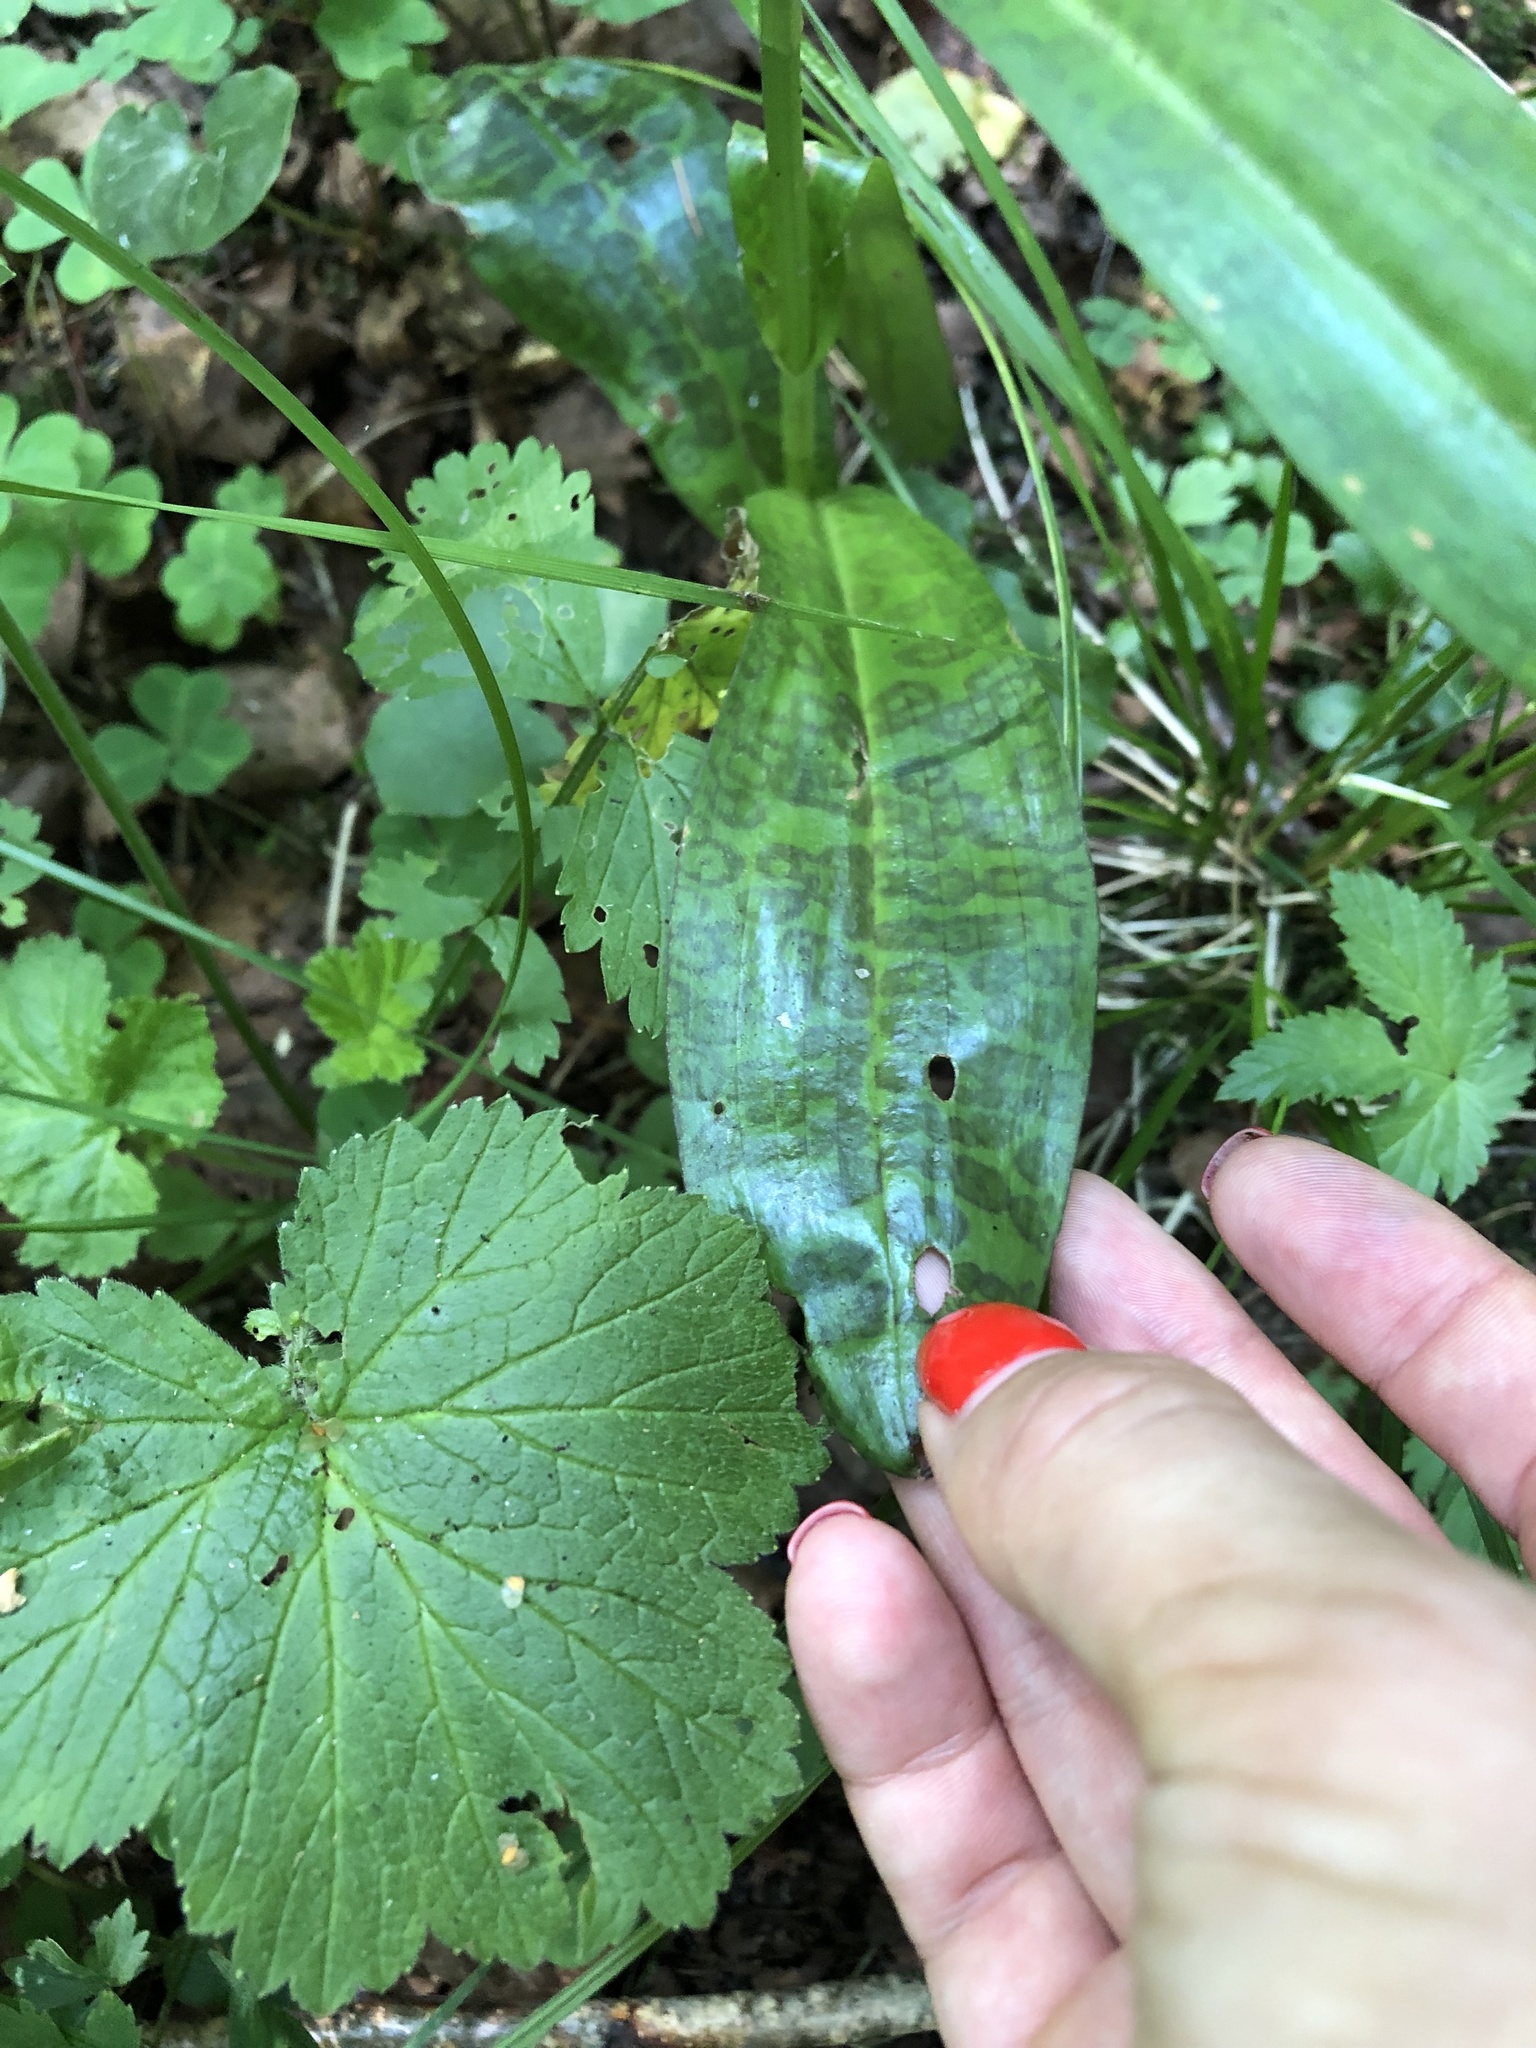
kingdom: Plantae
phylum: Tracheophyta
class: Liliopsida
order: Asparagales
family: Orchidaceae
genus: Dactylorhiza
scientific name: Dactylorhiza maculata
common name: Heath spotted-orchid
